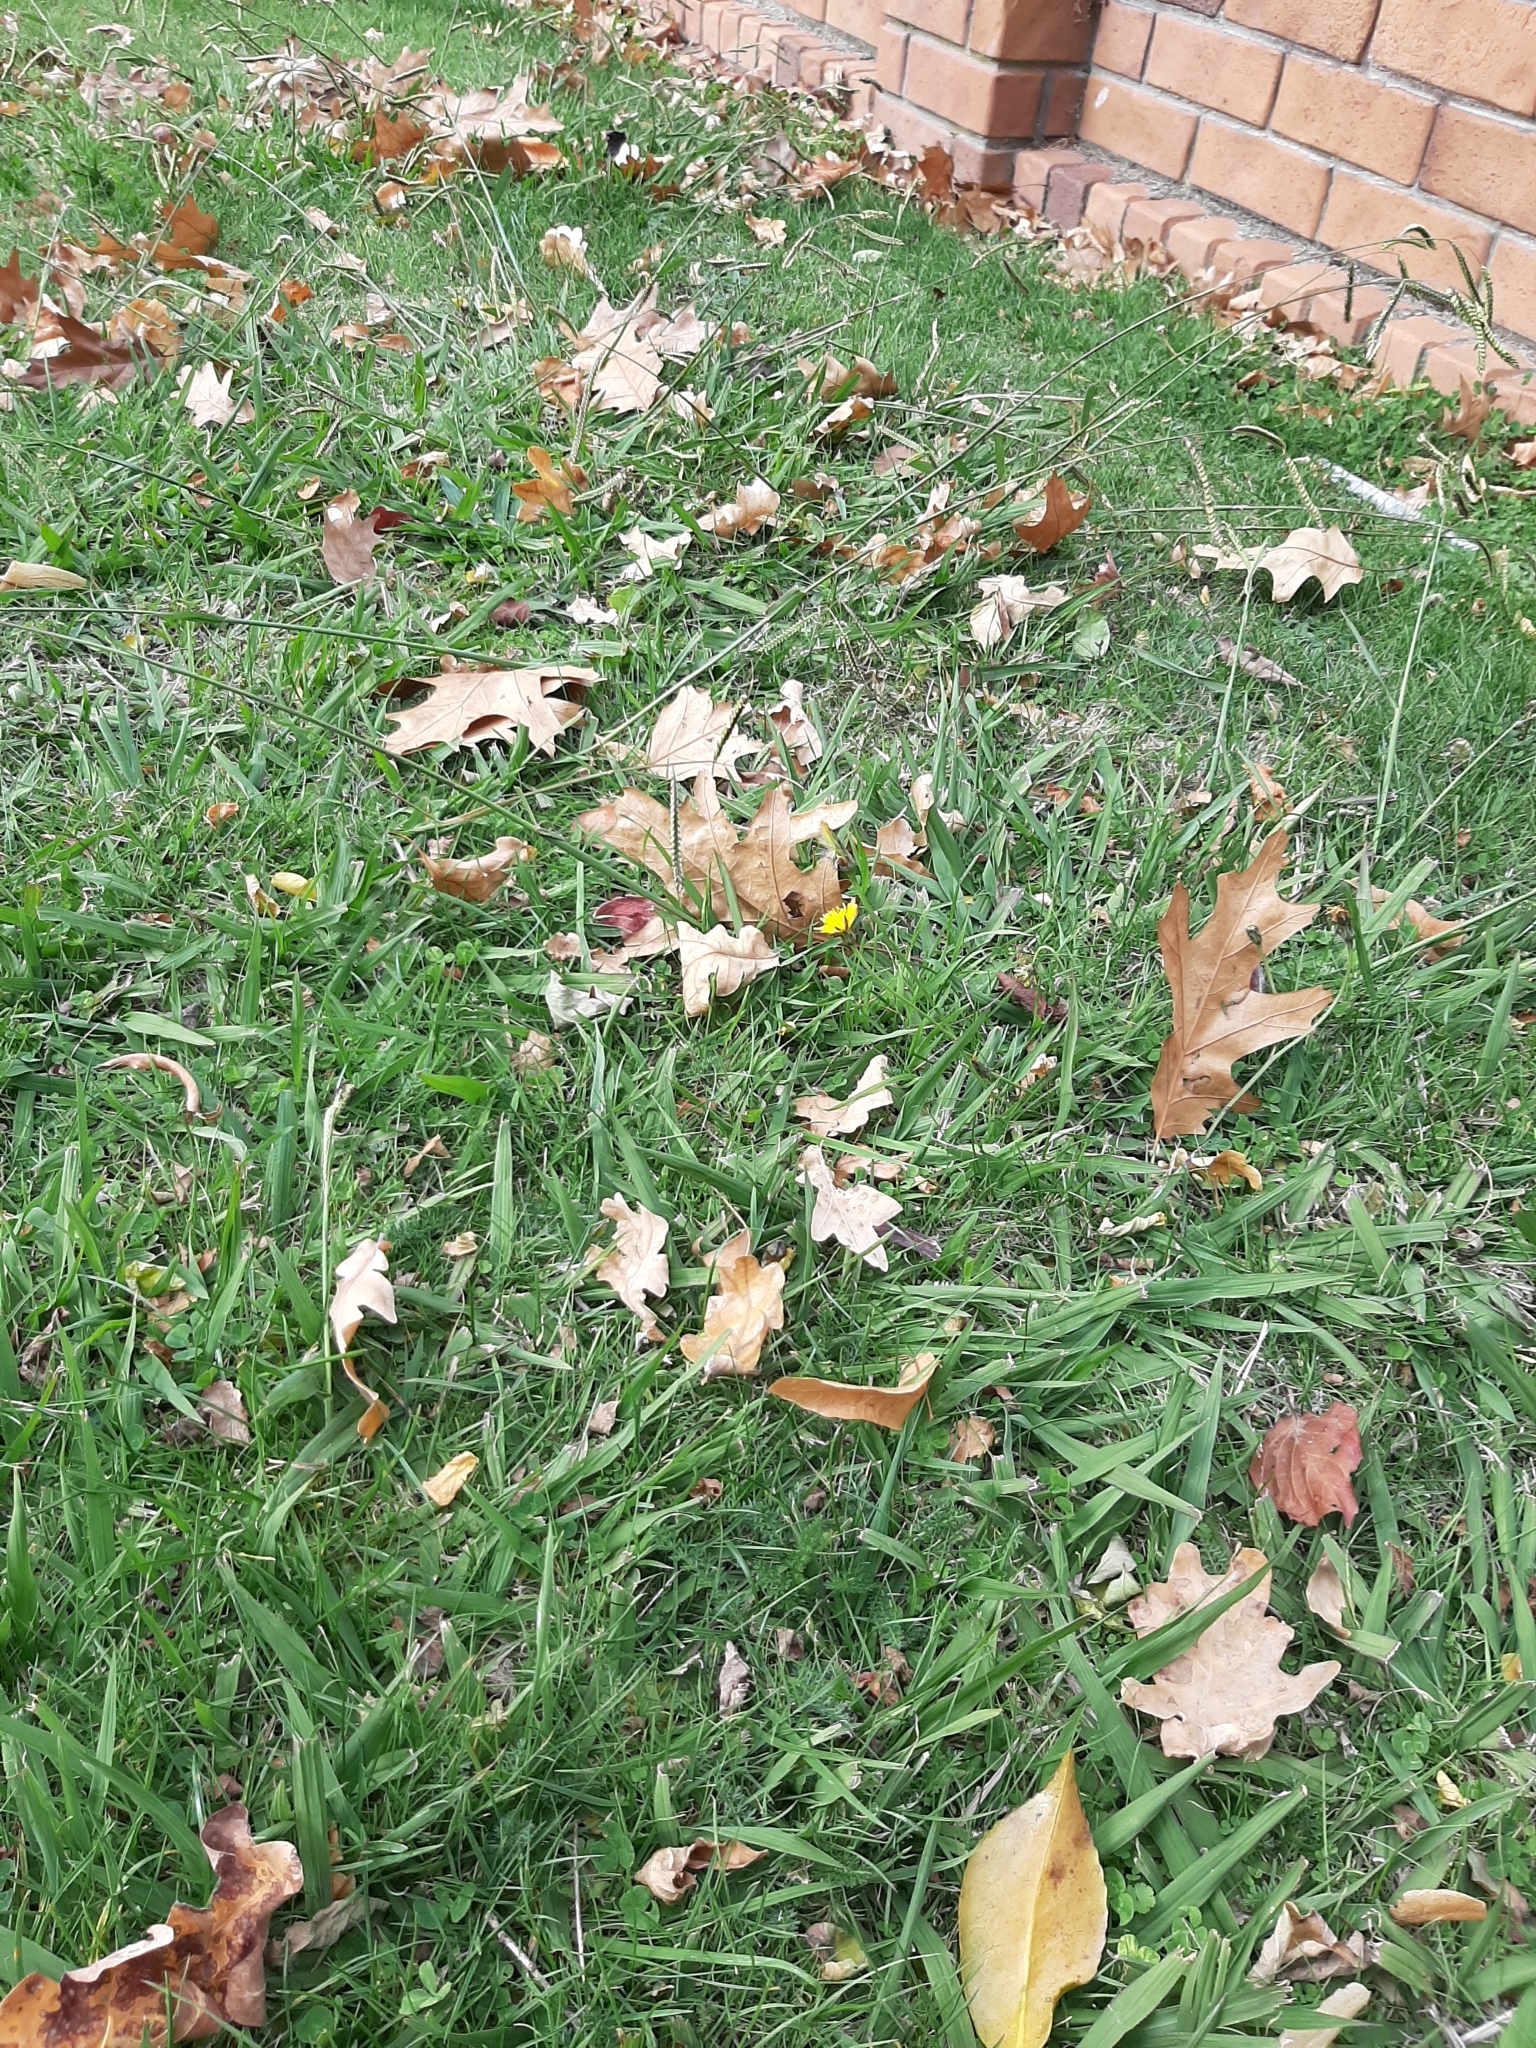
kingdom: Plantae
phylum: Tracheophyta
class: Liliopsida
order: Poales
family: Poaceae
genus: Paspalum
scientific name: Paspalum dilatatum
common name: Dallisgrass
